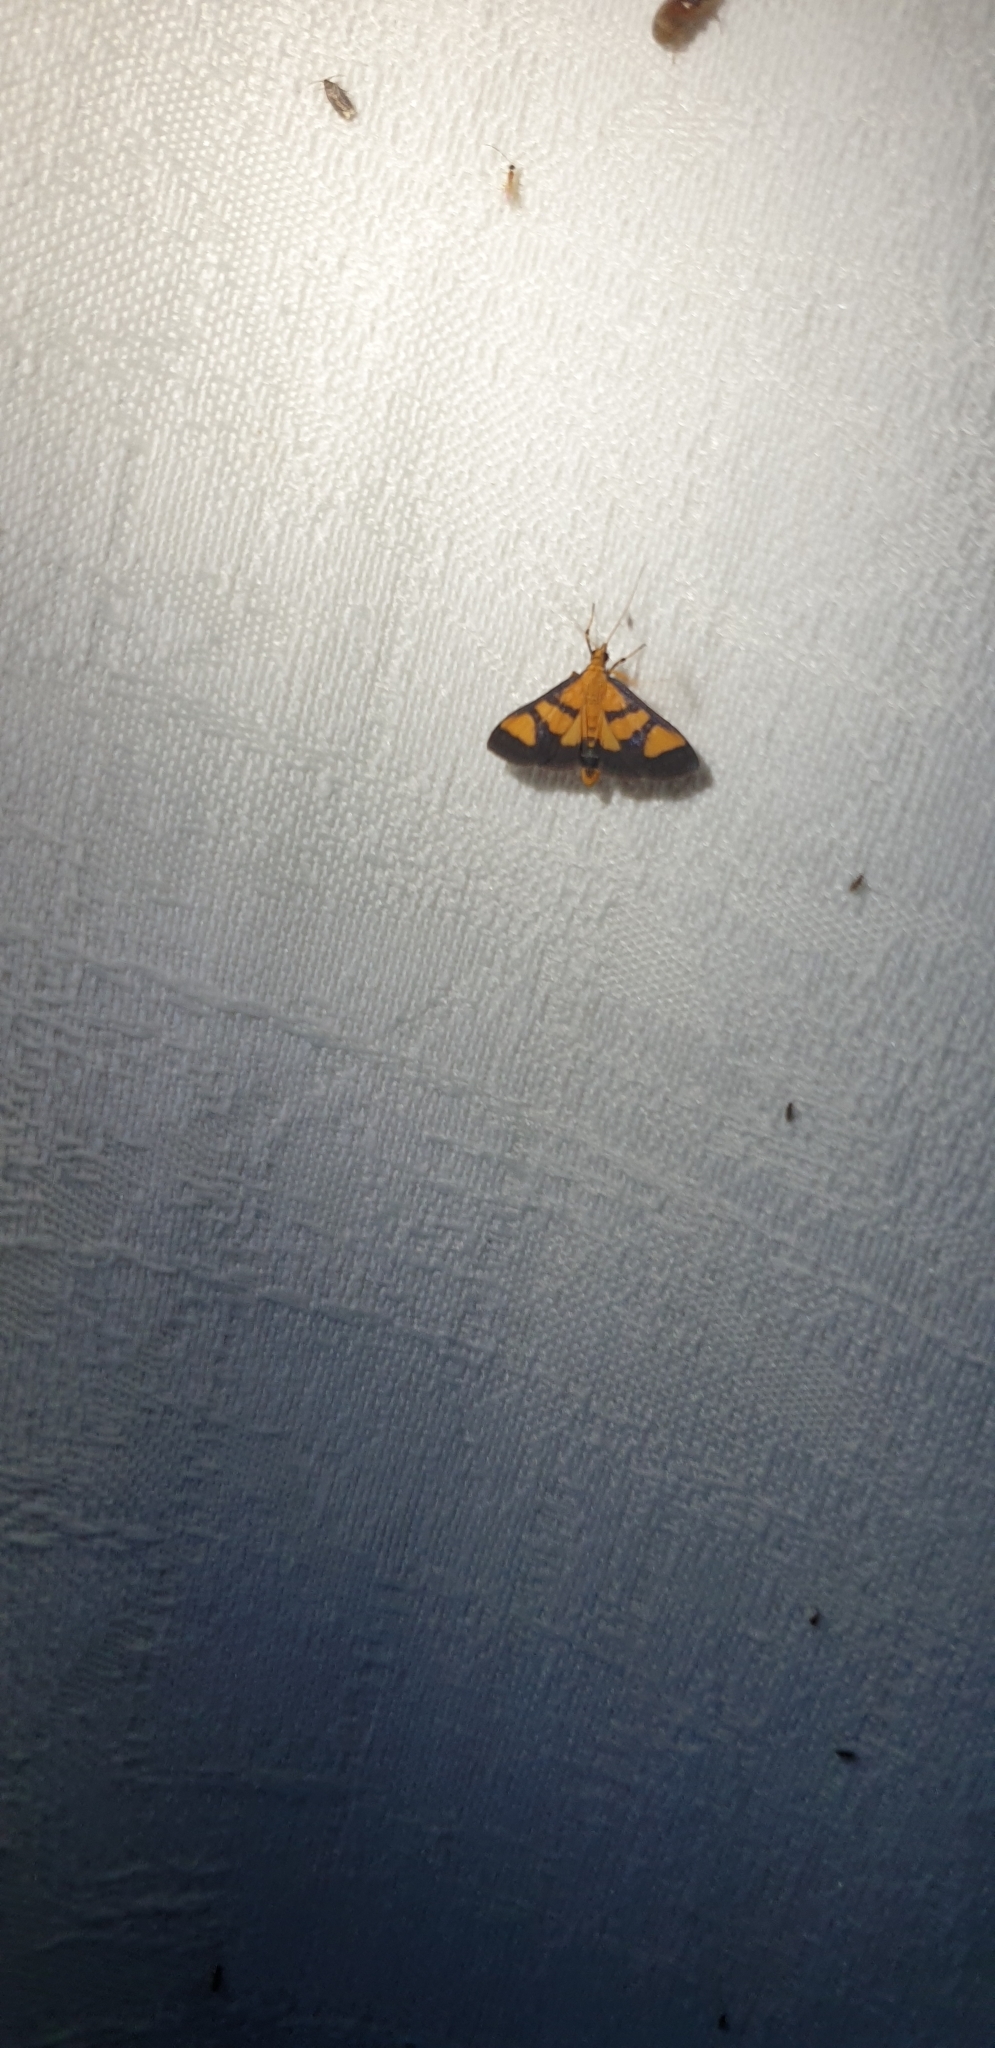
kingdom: Animalia
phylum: Arthropoda
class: Insecta
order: Lepidoptera
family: Crambidae
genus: Metallarcha
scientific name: Metallarcha achoeusalis
